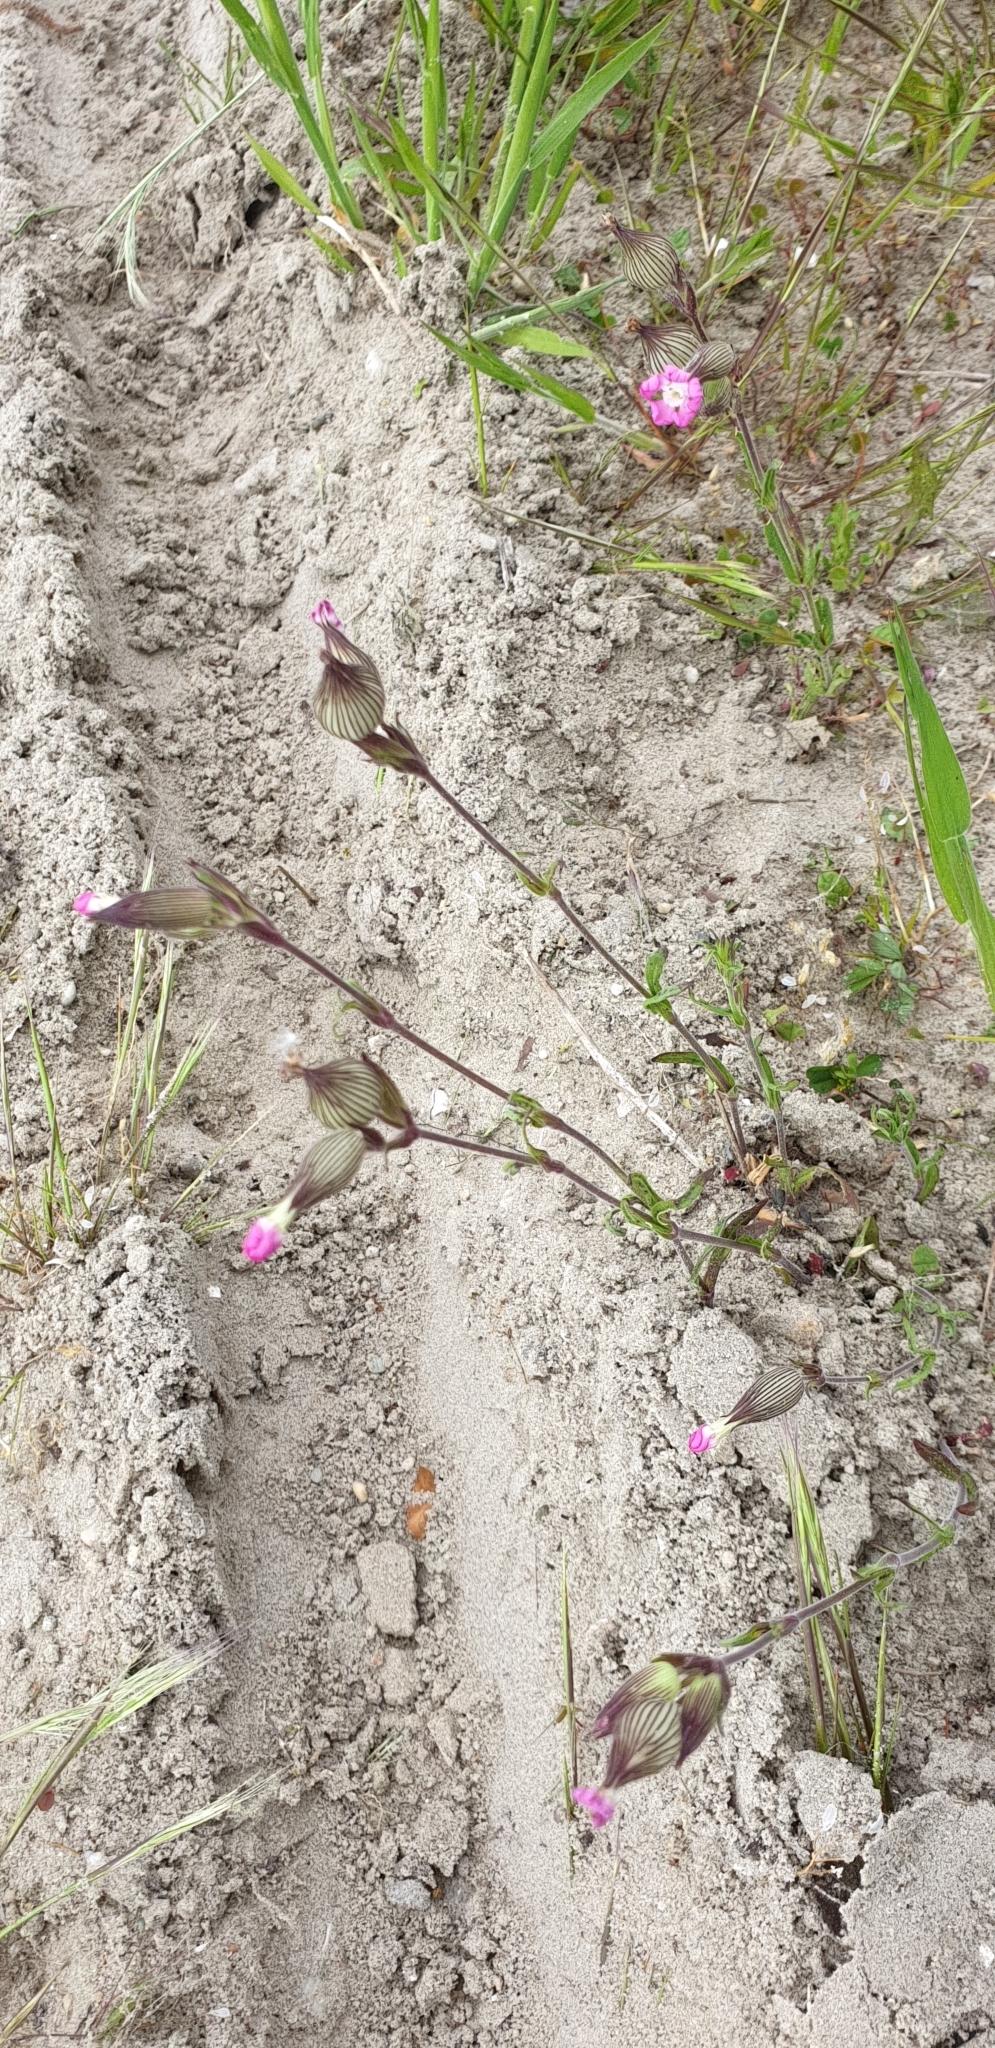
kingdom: Plantae
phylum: Tracheophyta
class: Magnoliopsida
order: Caryophyllales
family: Caryophyllaceae
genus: Silene
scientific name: Silene conica
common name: Sand catchfly
